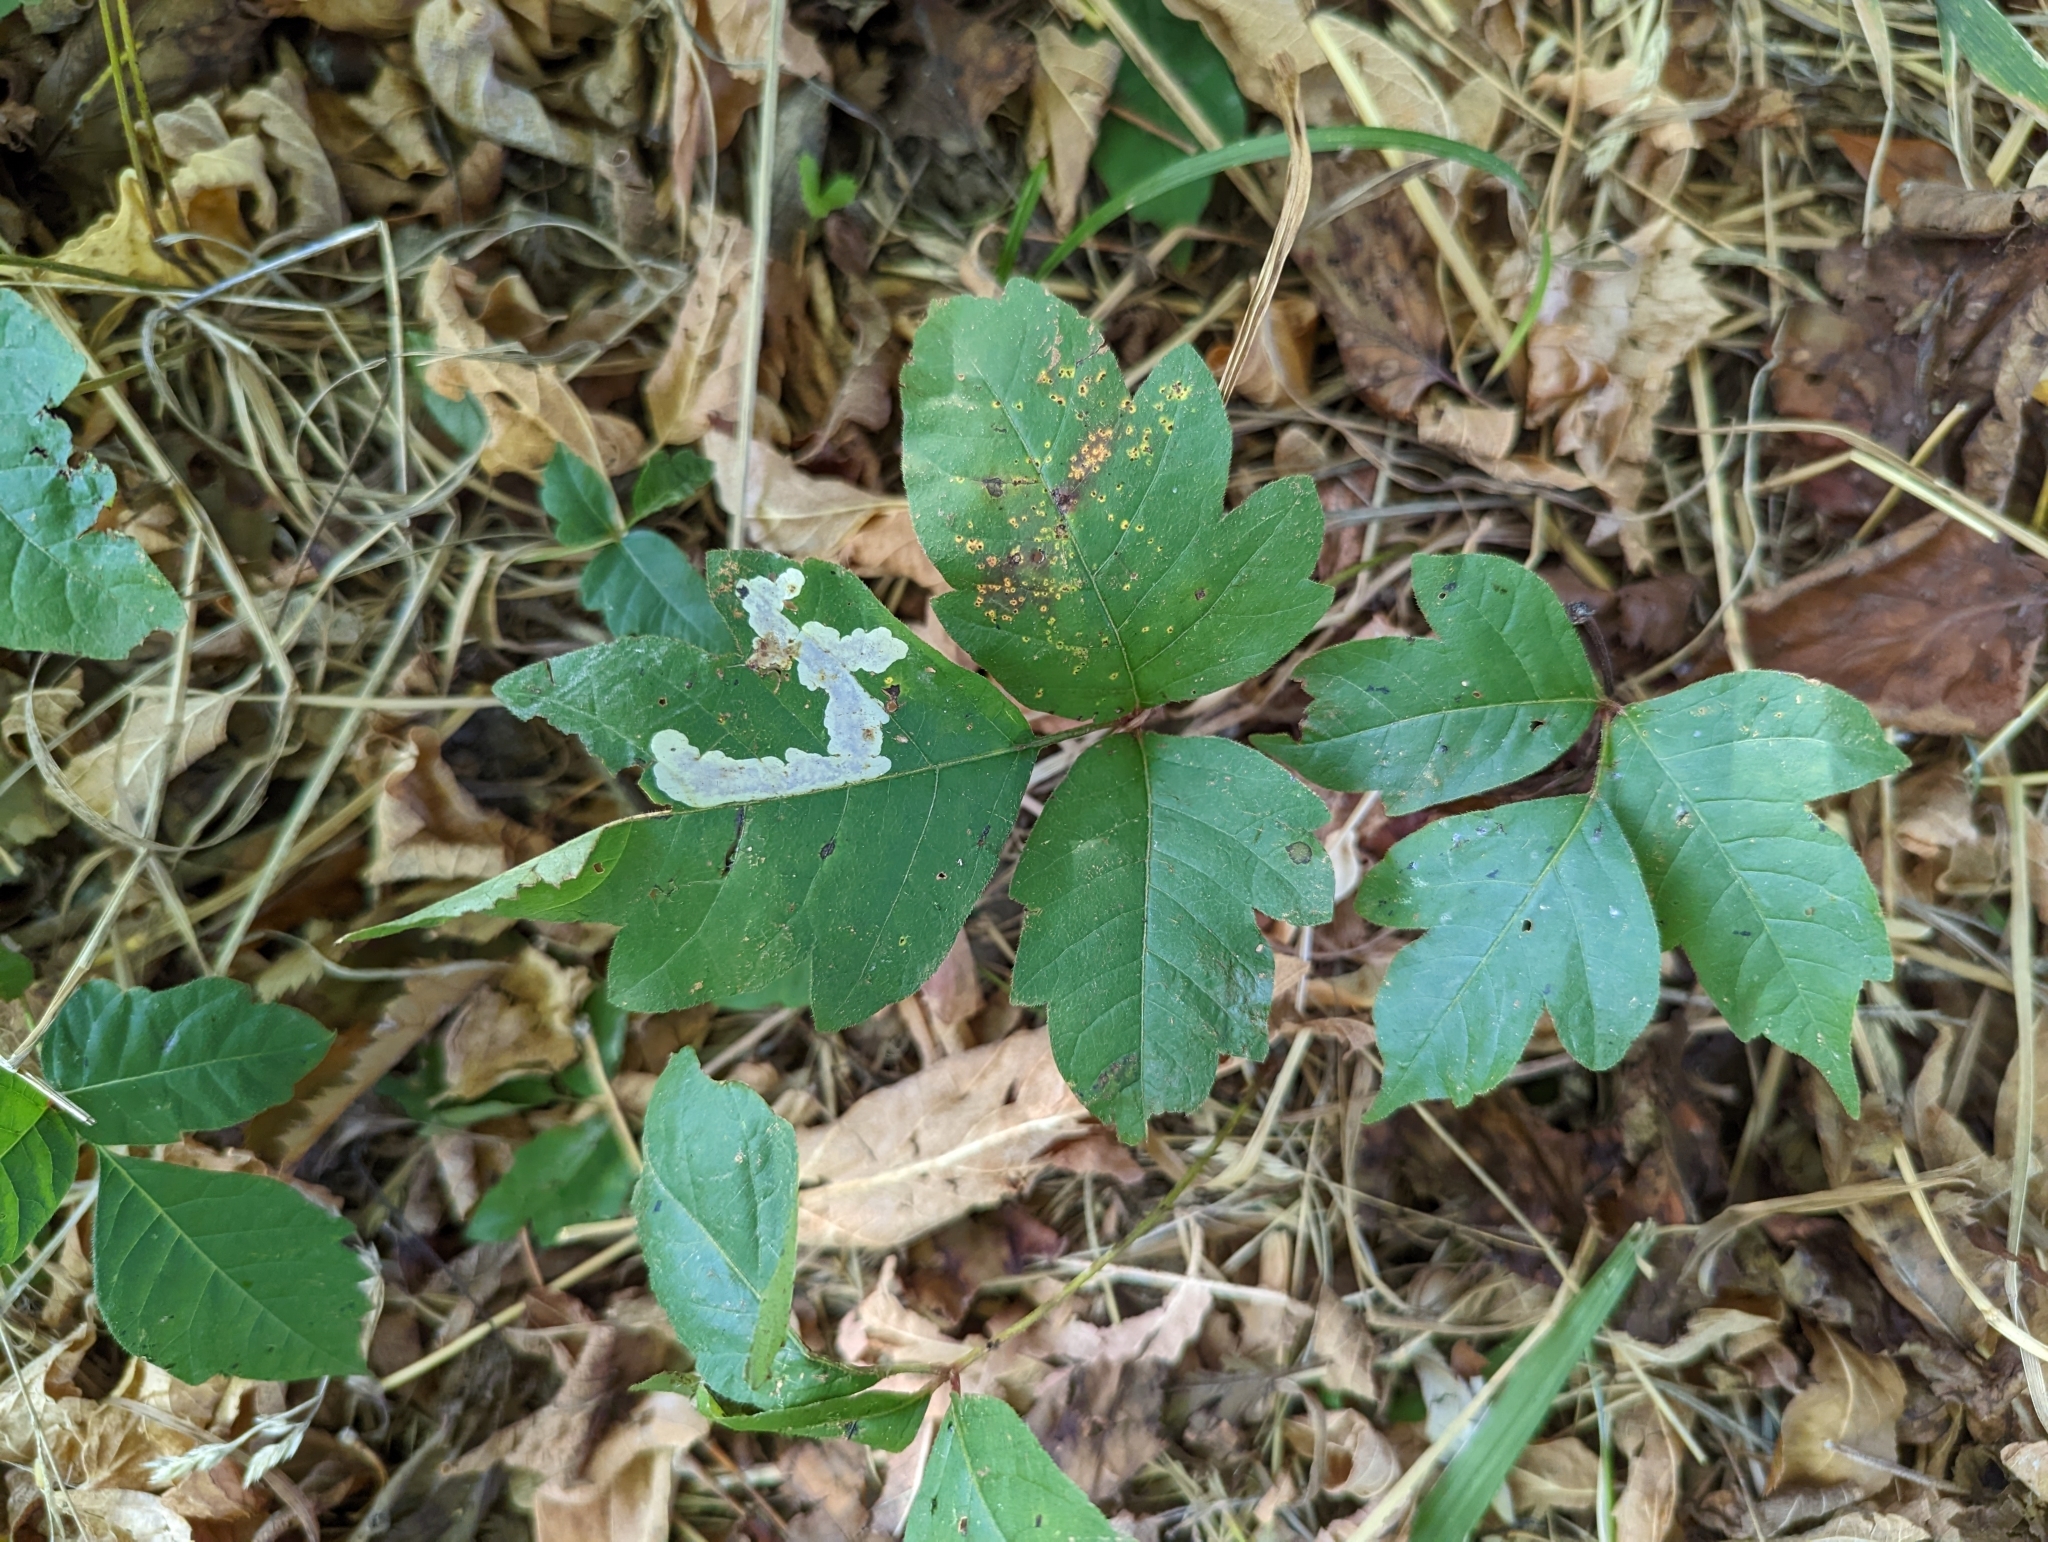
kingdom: Animalia
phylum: Arthropoda
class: Insecta
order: Lepidoptera
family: Gracillariidae
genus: Cameraria
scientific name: Cameraria guttifinitella
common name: Poison ivy leaf-miner moth
